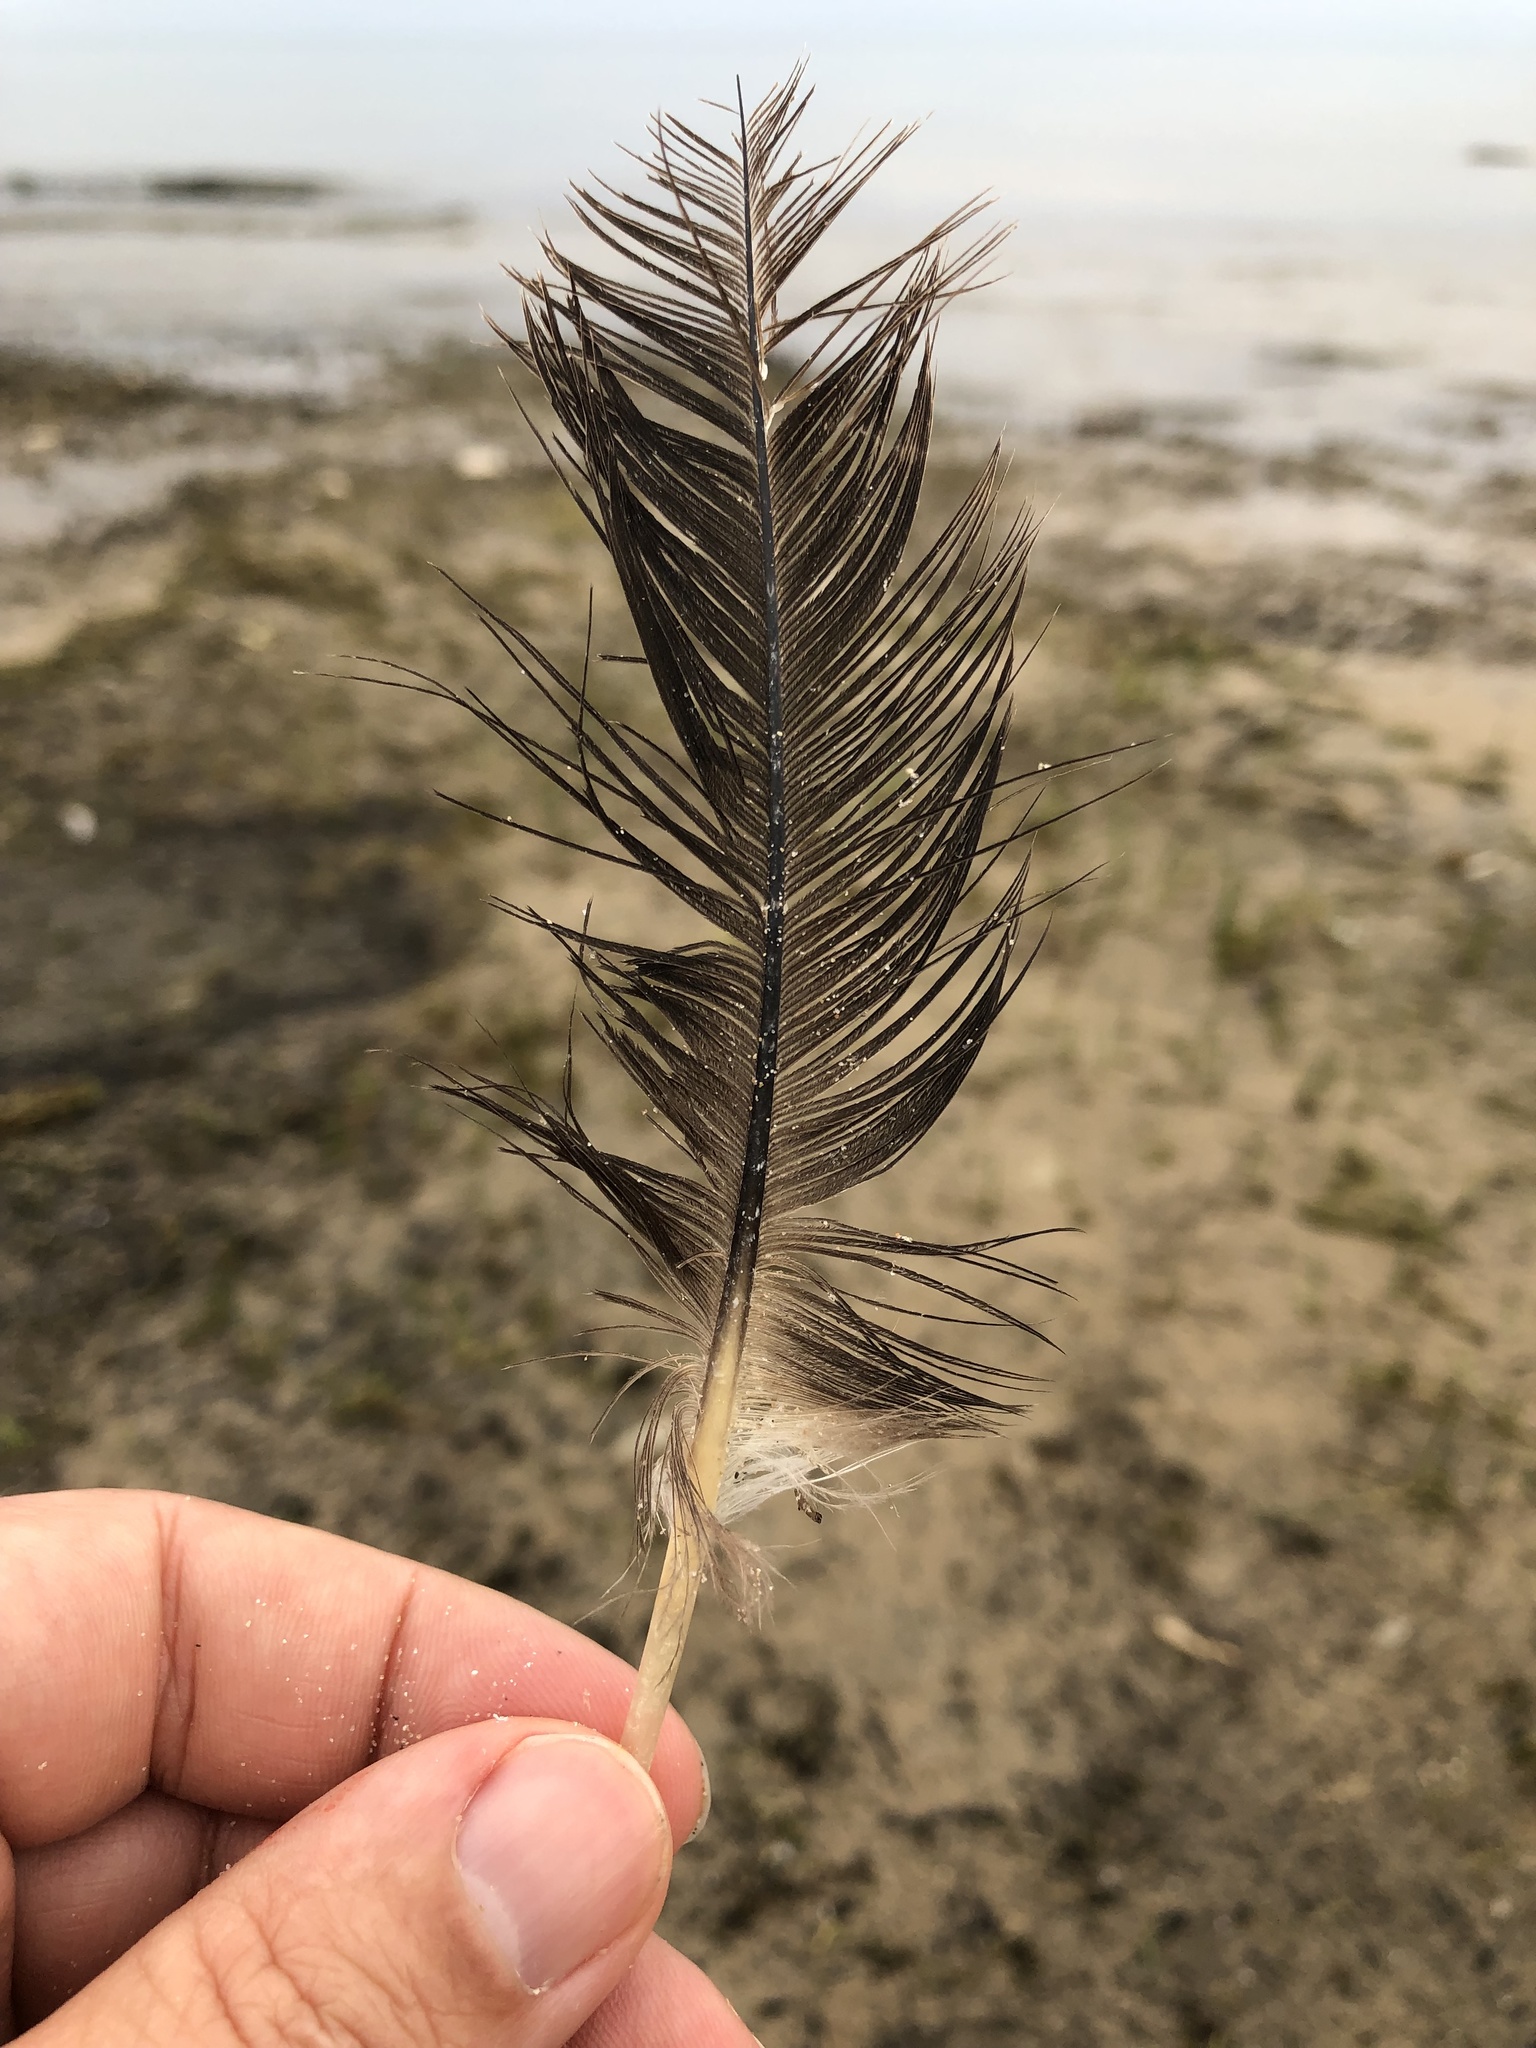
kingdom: Animalia
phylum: Chordata
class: Aves
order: Anseriformes
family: Anatidae
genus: Branta
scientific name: Branta canadensis
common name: Canada goose
